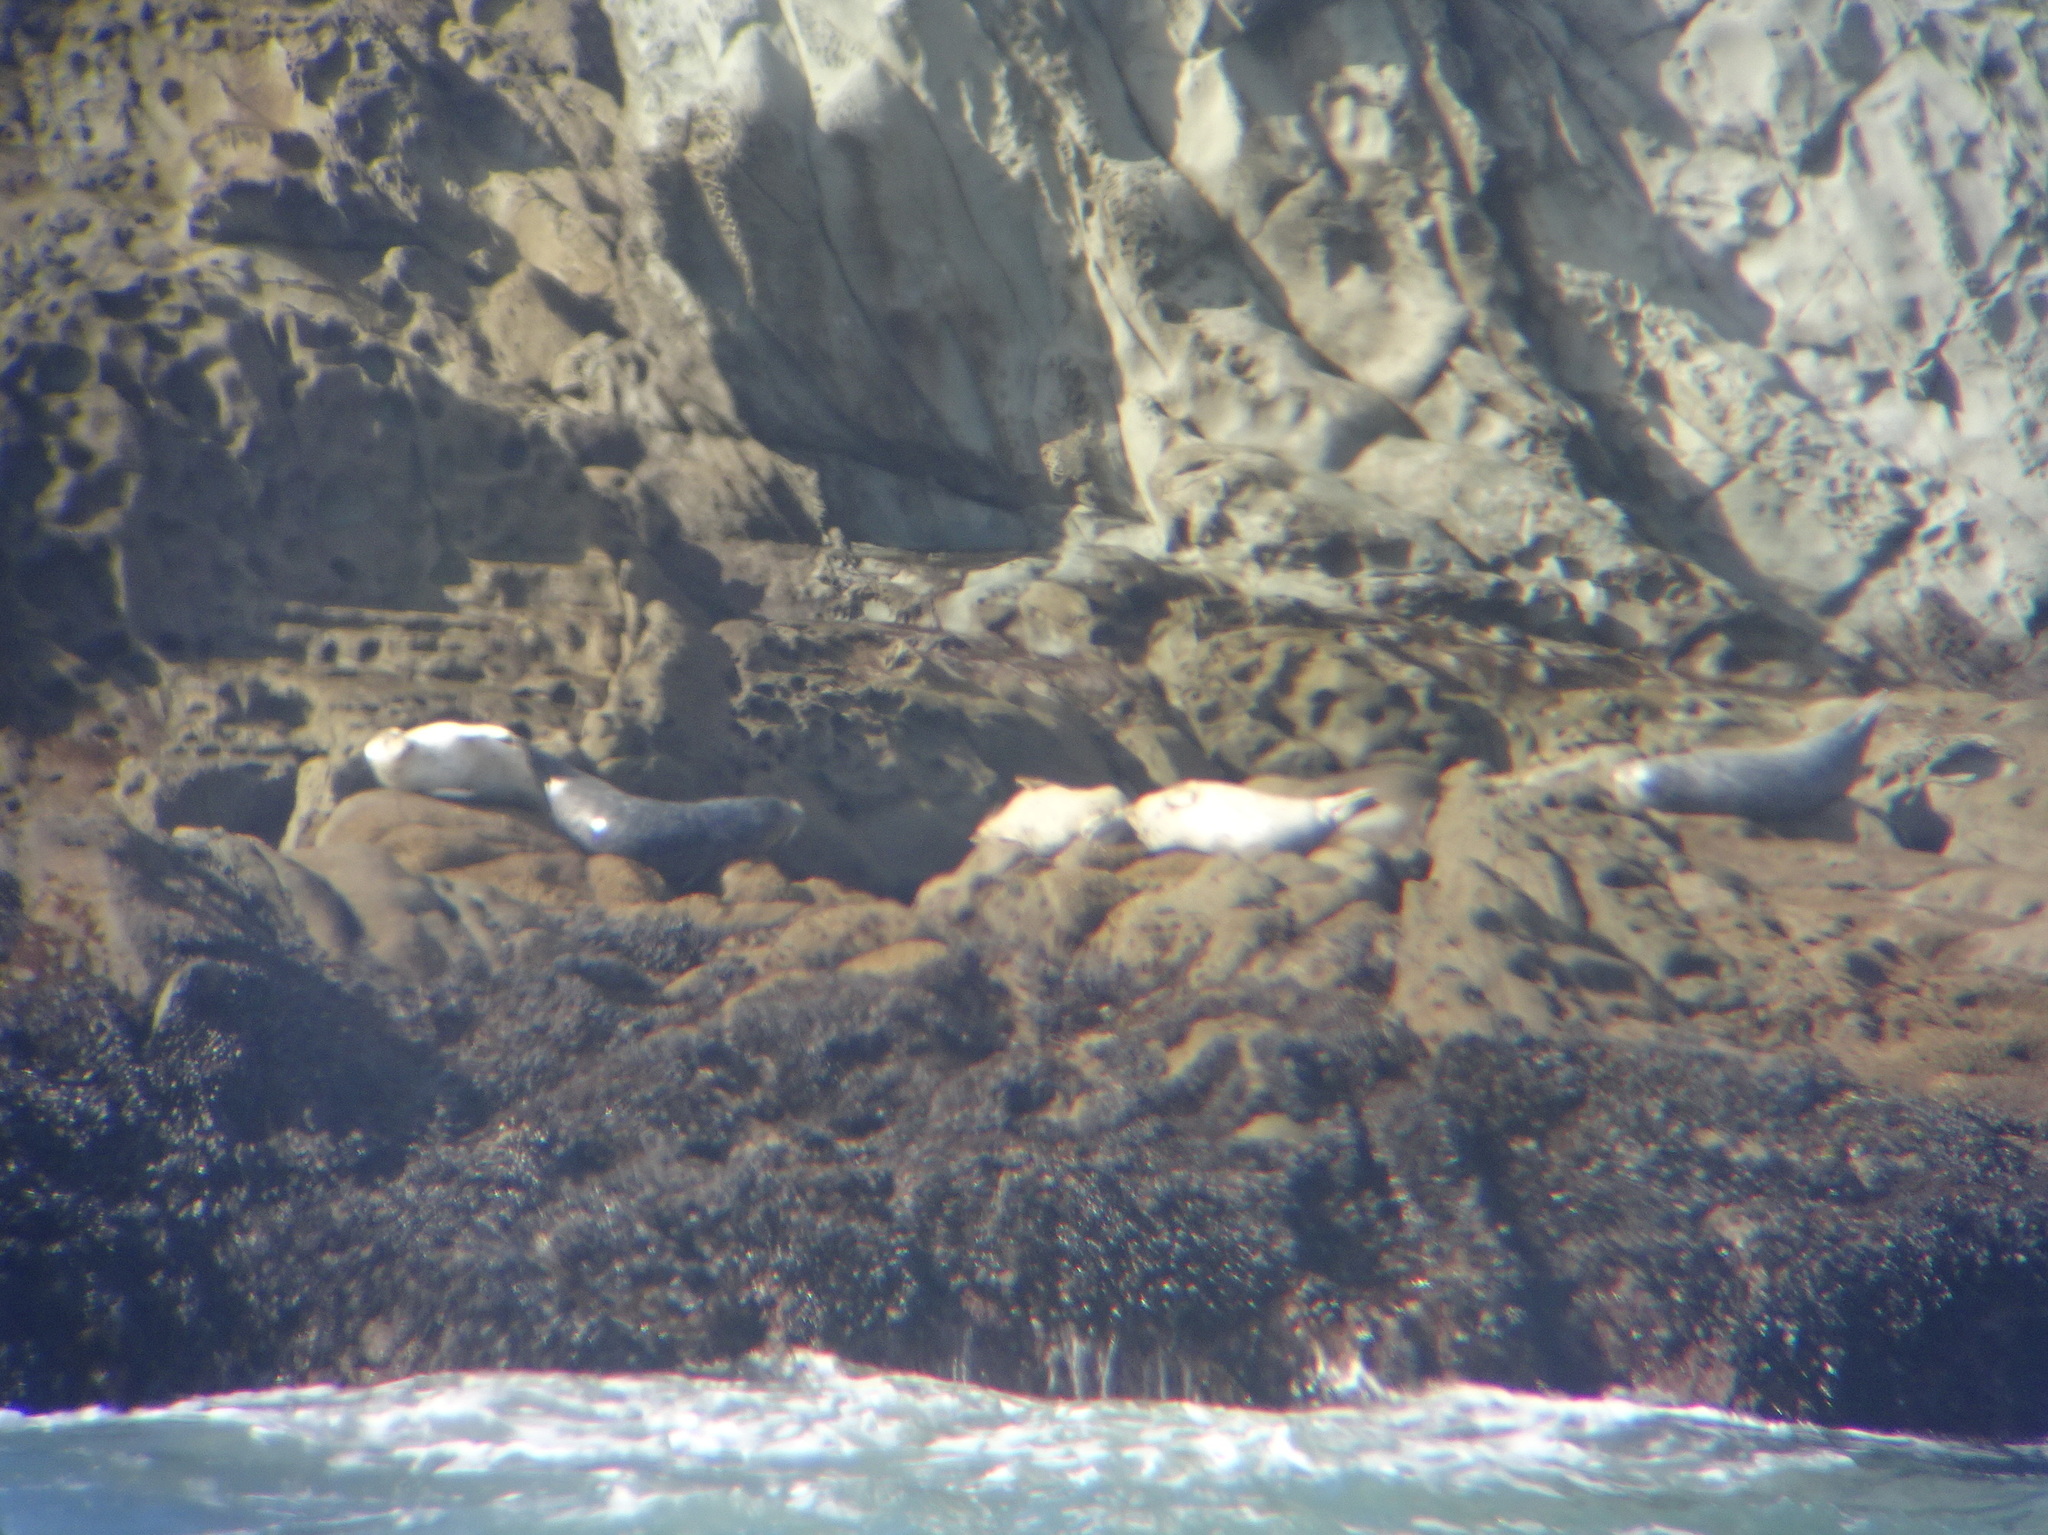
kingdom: Animalia
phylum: Chordata
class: Mammalia
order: Carnivora
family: Phocidae
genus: Phoca
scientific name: Phoca vitulina
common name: Harbor seal
